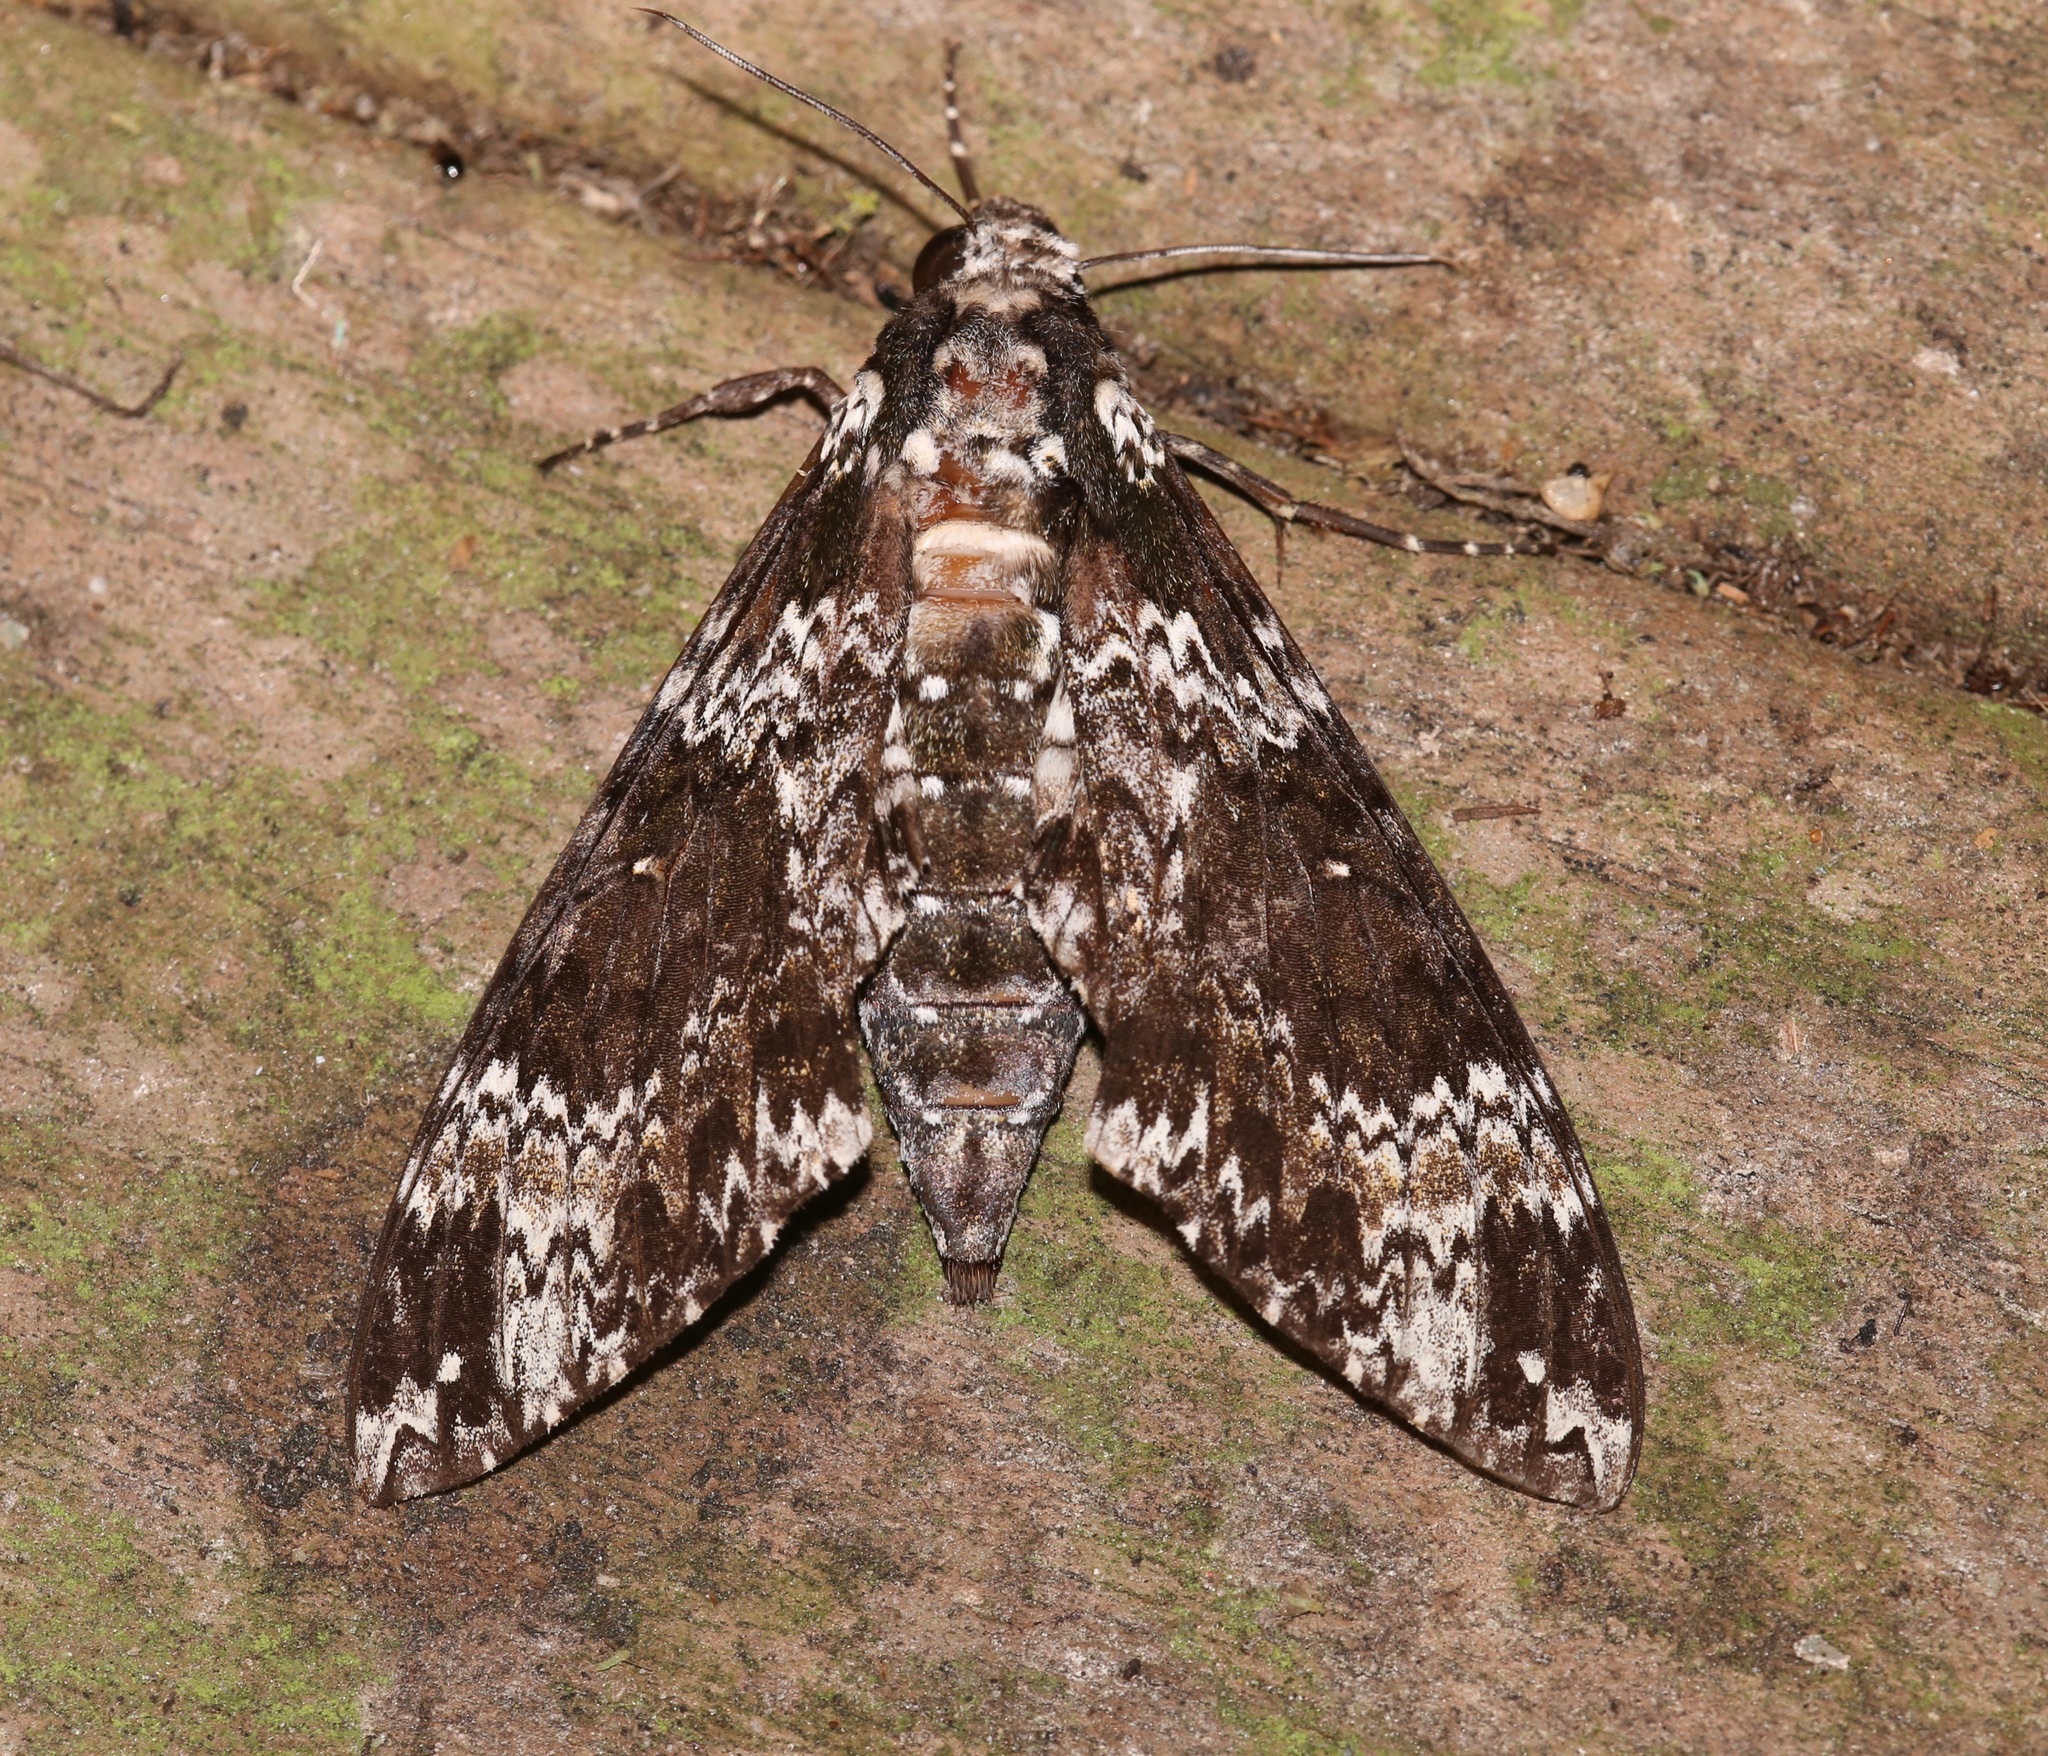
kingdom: Animalia
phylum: Arthropoda
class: Insecta
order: Lepidoptera
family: Sphingidae
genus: Manduca
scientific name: Manduca rustica
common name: Rustic sphinx
